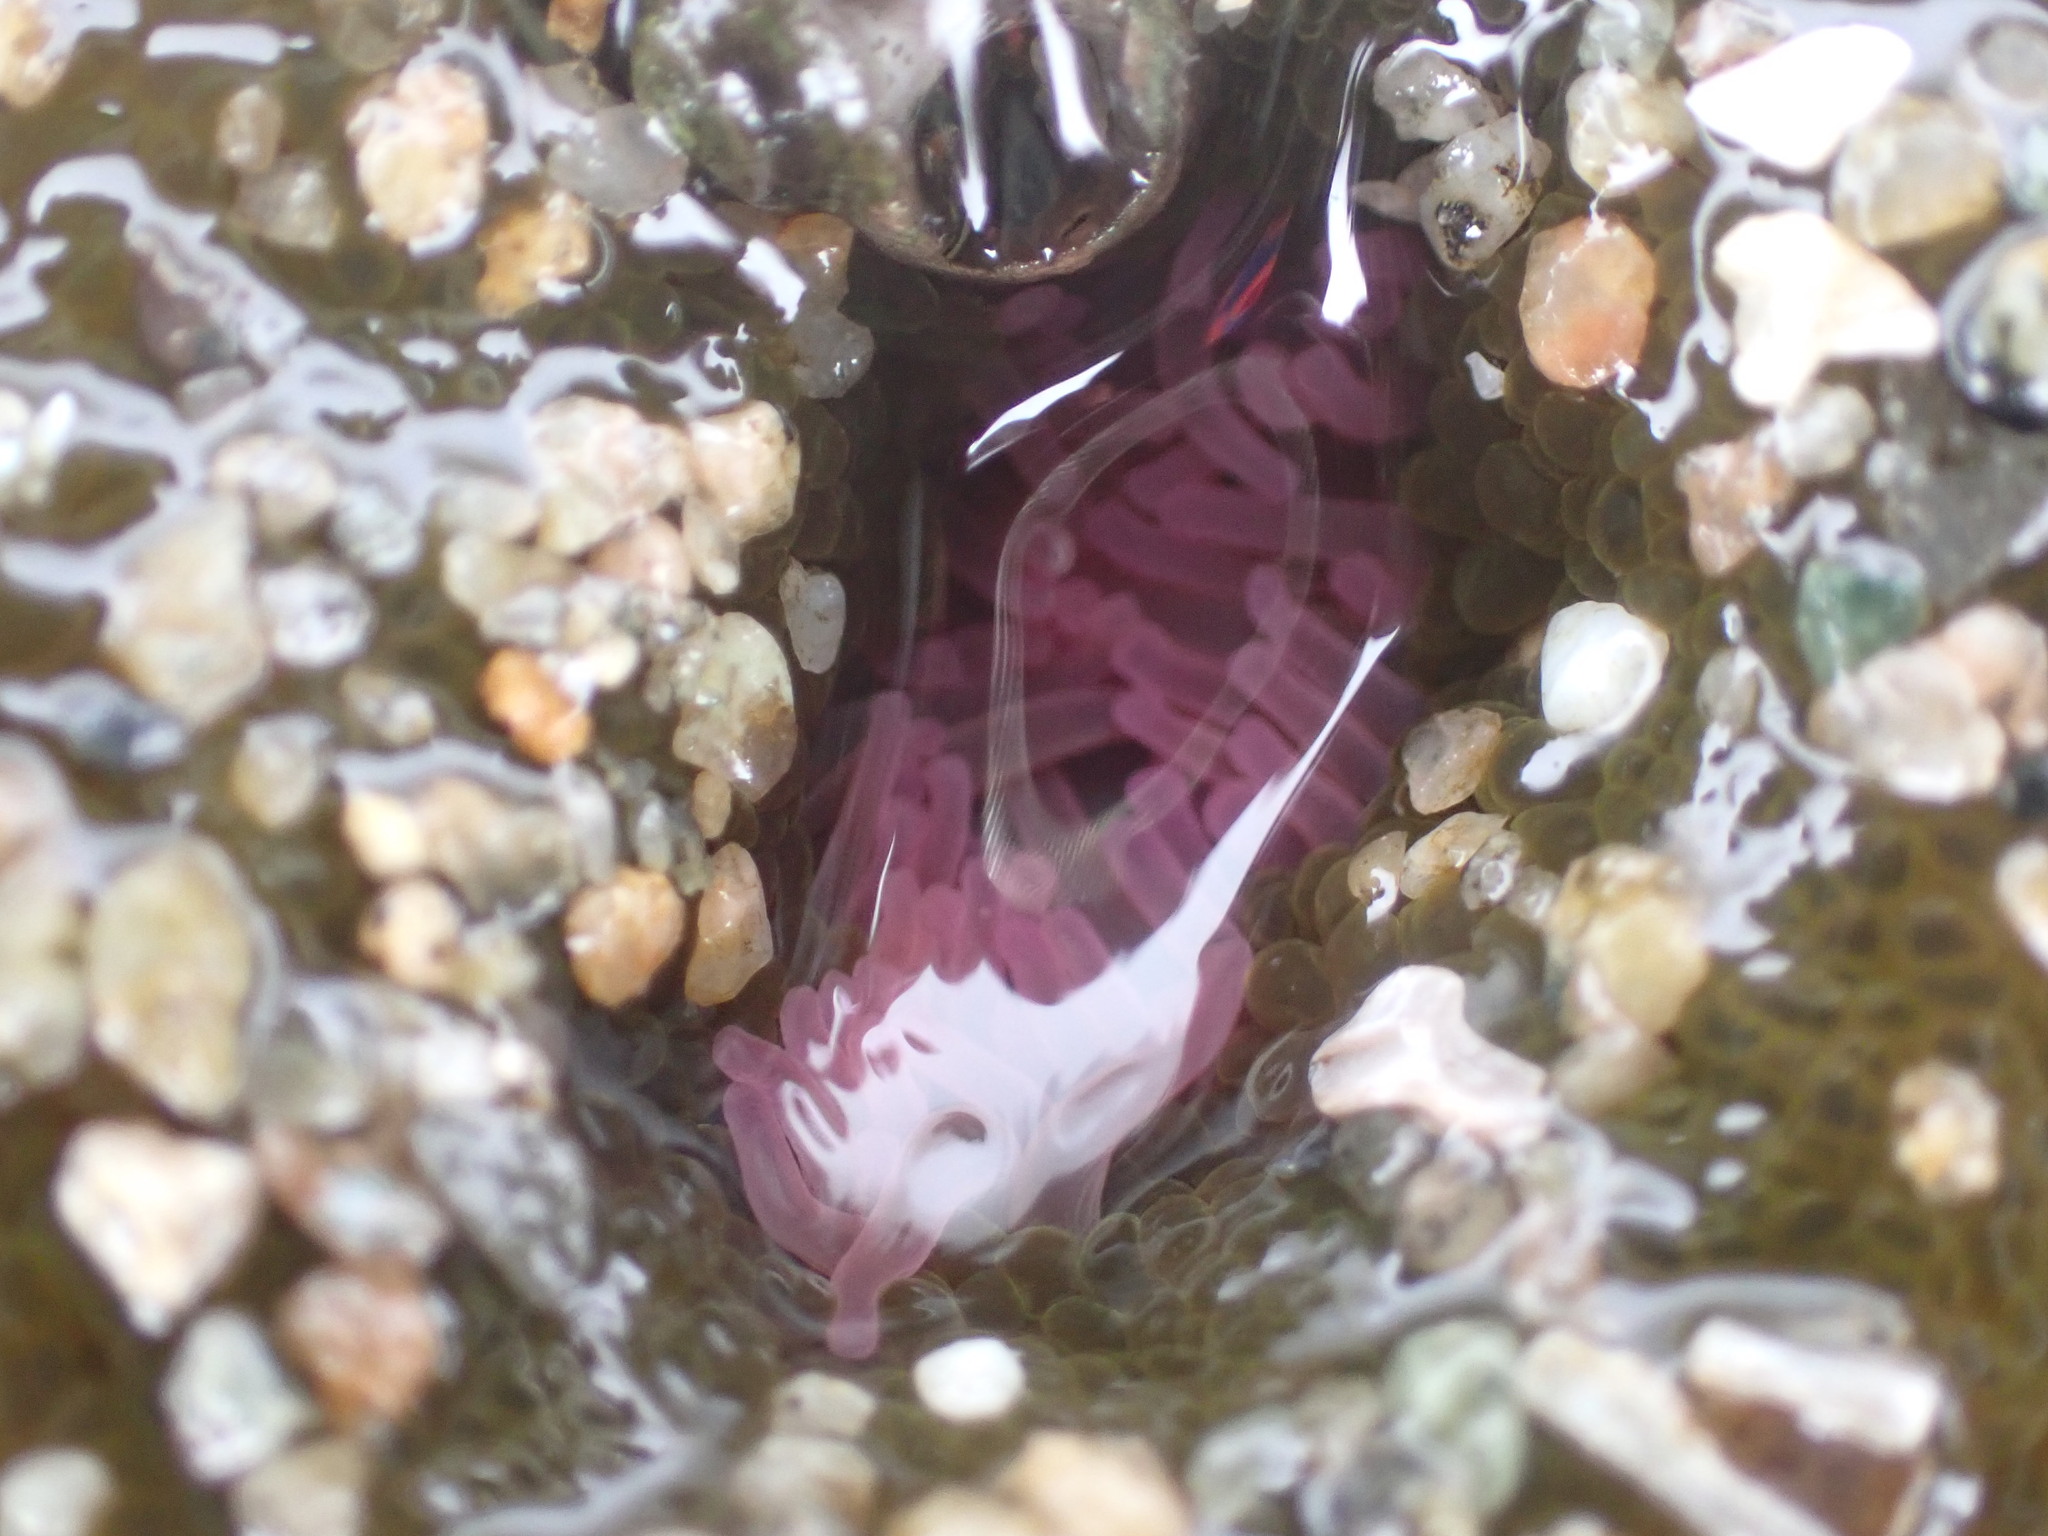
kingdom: Animalia
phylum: Cnidaria
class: Anthozoa
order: Actiniaria
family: Actiniidae
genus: Anthopleura
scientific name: Anthopleura elegantissima
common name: Clonal anemone
